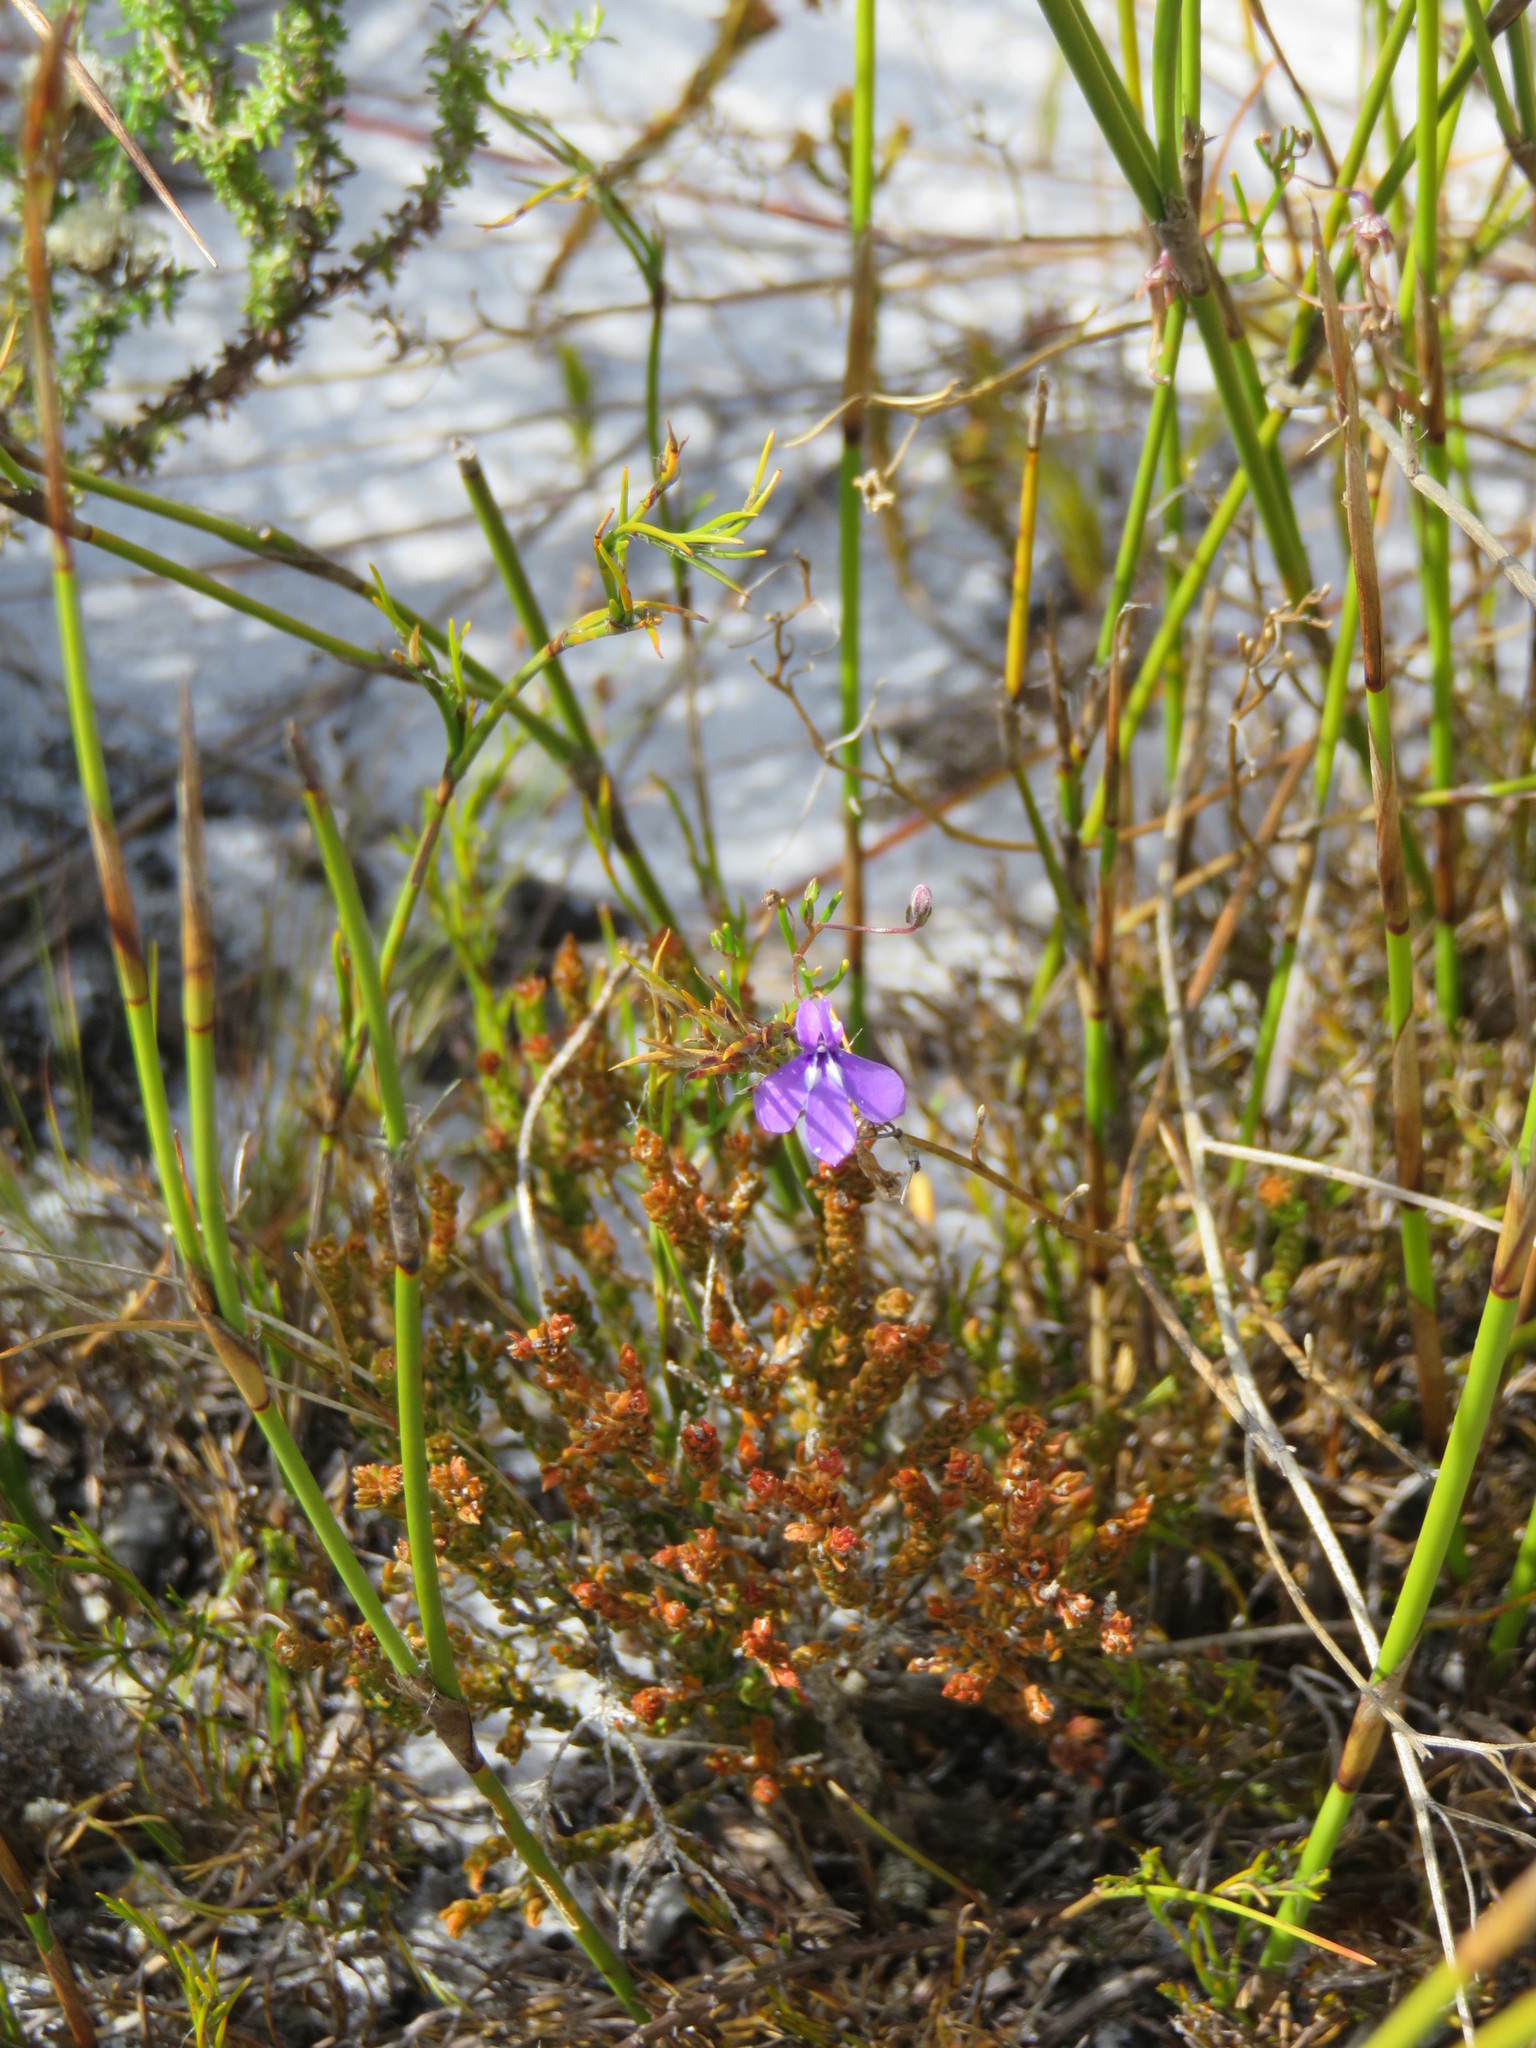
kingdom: Plantae
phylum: Tracheophyta
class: Magnoliopsida
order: Asterales
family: Campanulaceae
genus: Lobelia
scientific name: Lobelia setacea
